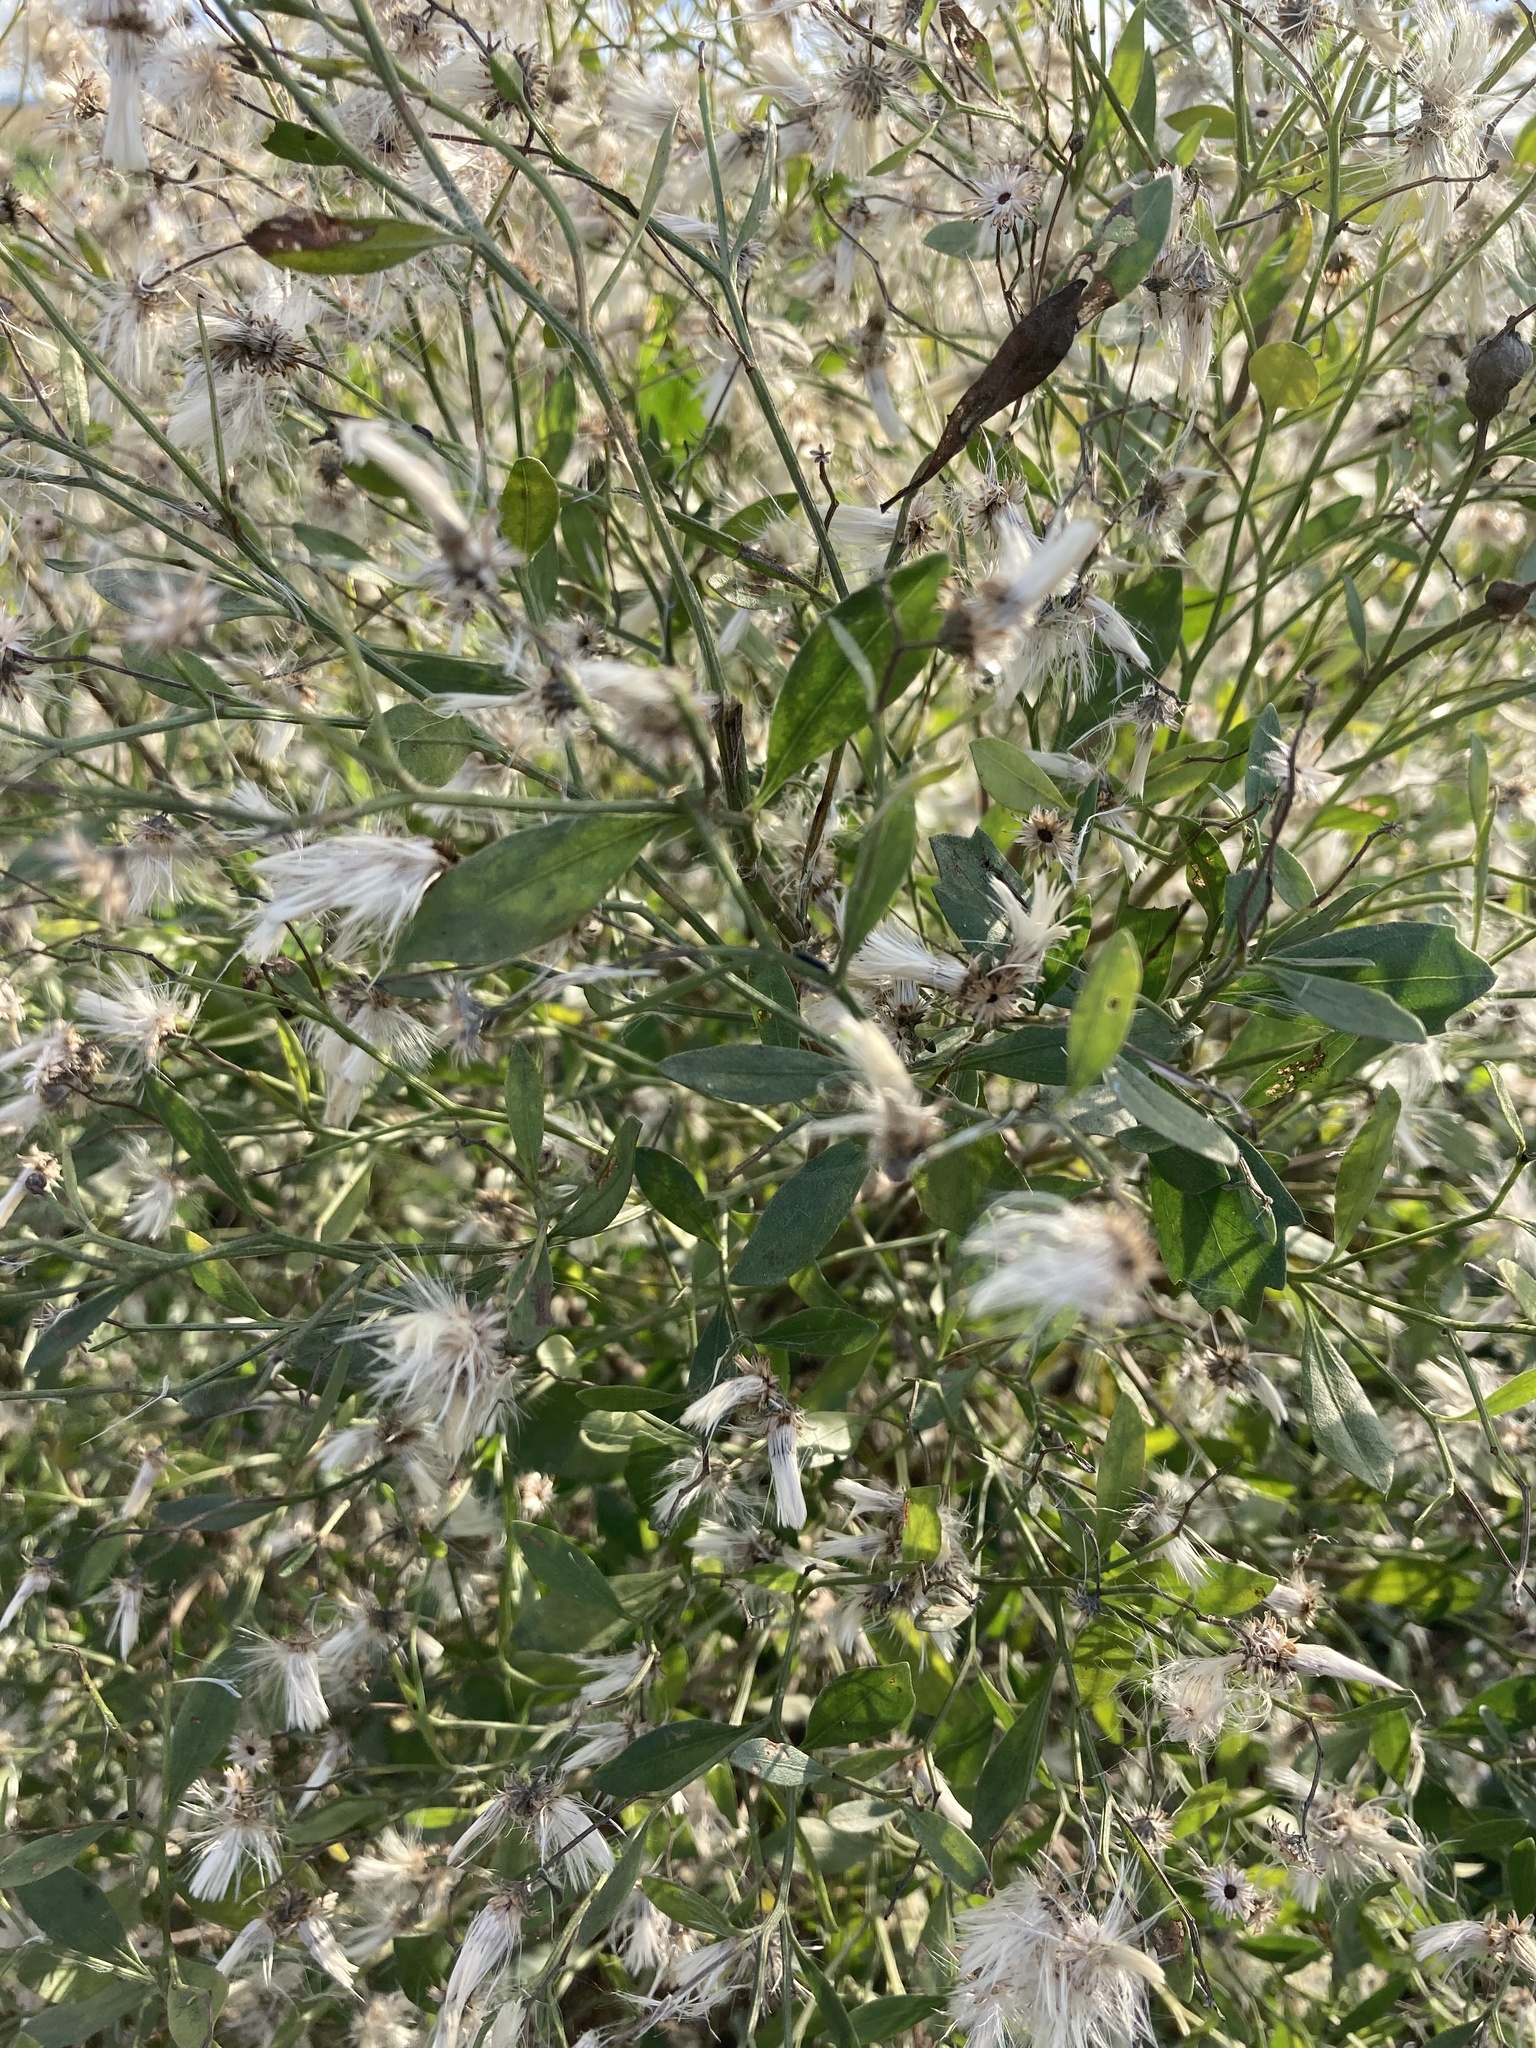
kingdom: Plantae
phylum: Tracheophyta
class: Magnoliopsida
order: Asterales
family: Asteraceae
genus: Baccharis
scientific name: Baccharis halimifolia
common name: Eastern baccharis
